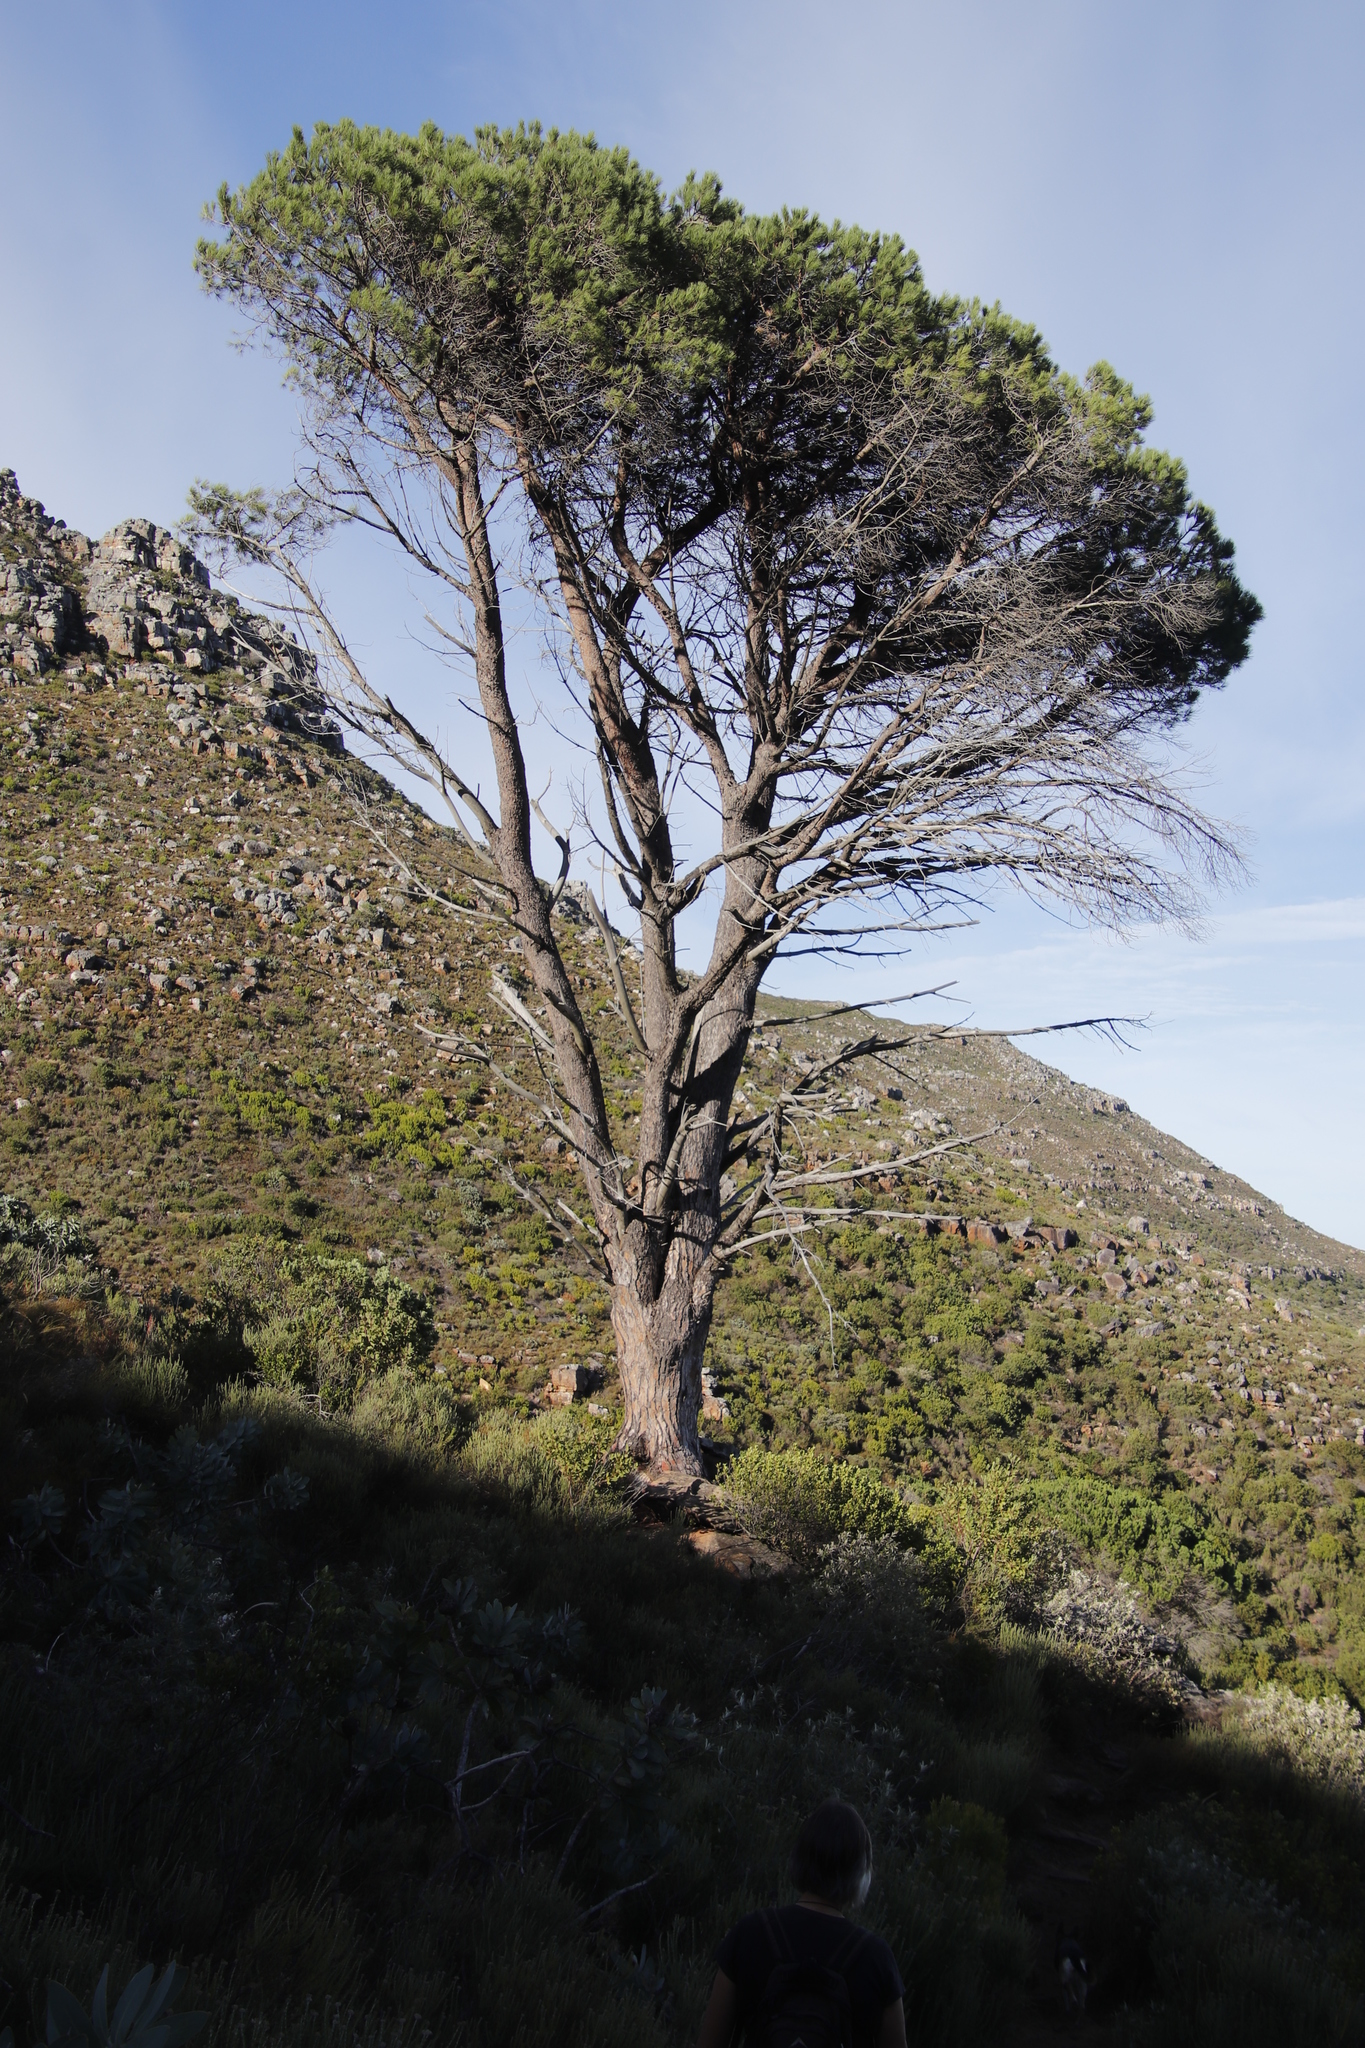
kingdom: Plantae
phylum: Tracheophyta
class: Pinopsida
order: Pinales
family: Pinaceae
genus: Pinus
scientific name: Pinus pinea
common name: Italian stone pine
